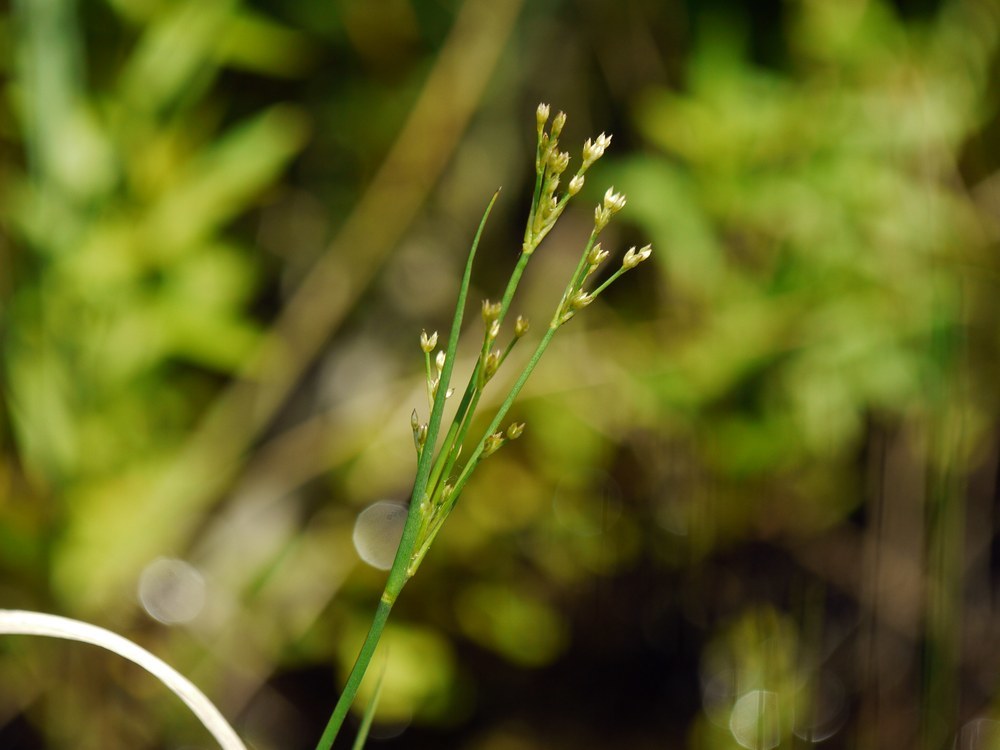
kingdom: Plantae
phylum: Tracheophyta
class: Liliopsida
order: Poales
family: Juncaceae
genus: Juncus
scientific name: Juncus articulatus
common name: Jointed rush
